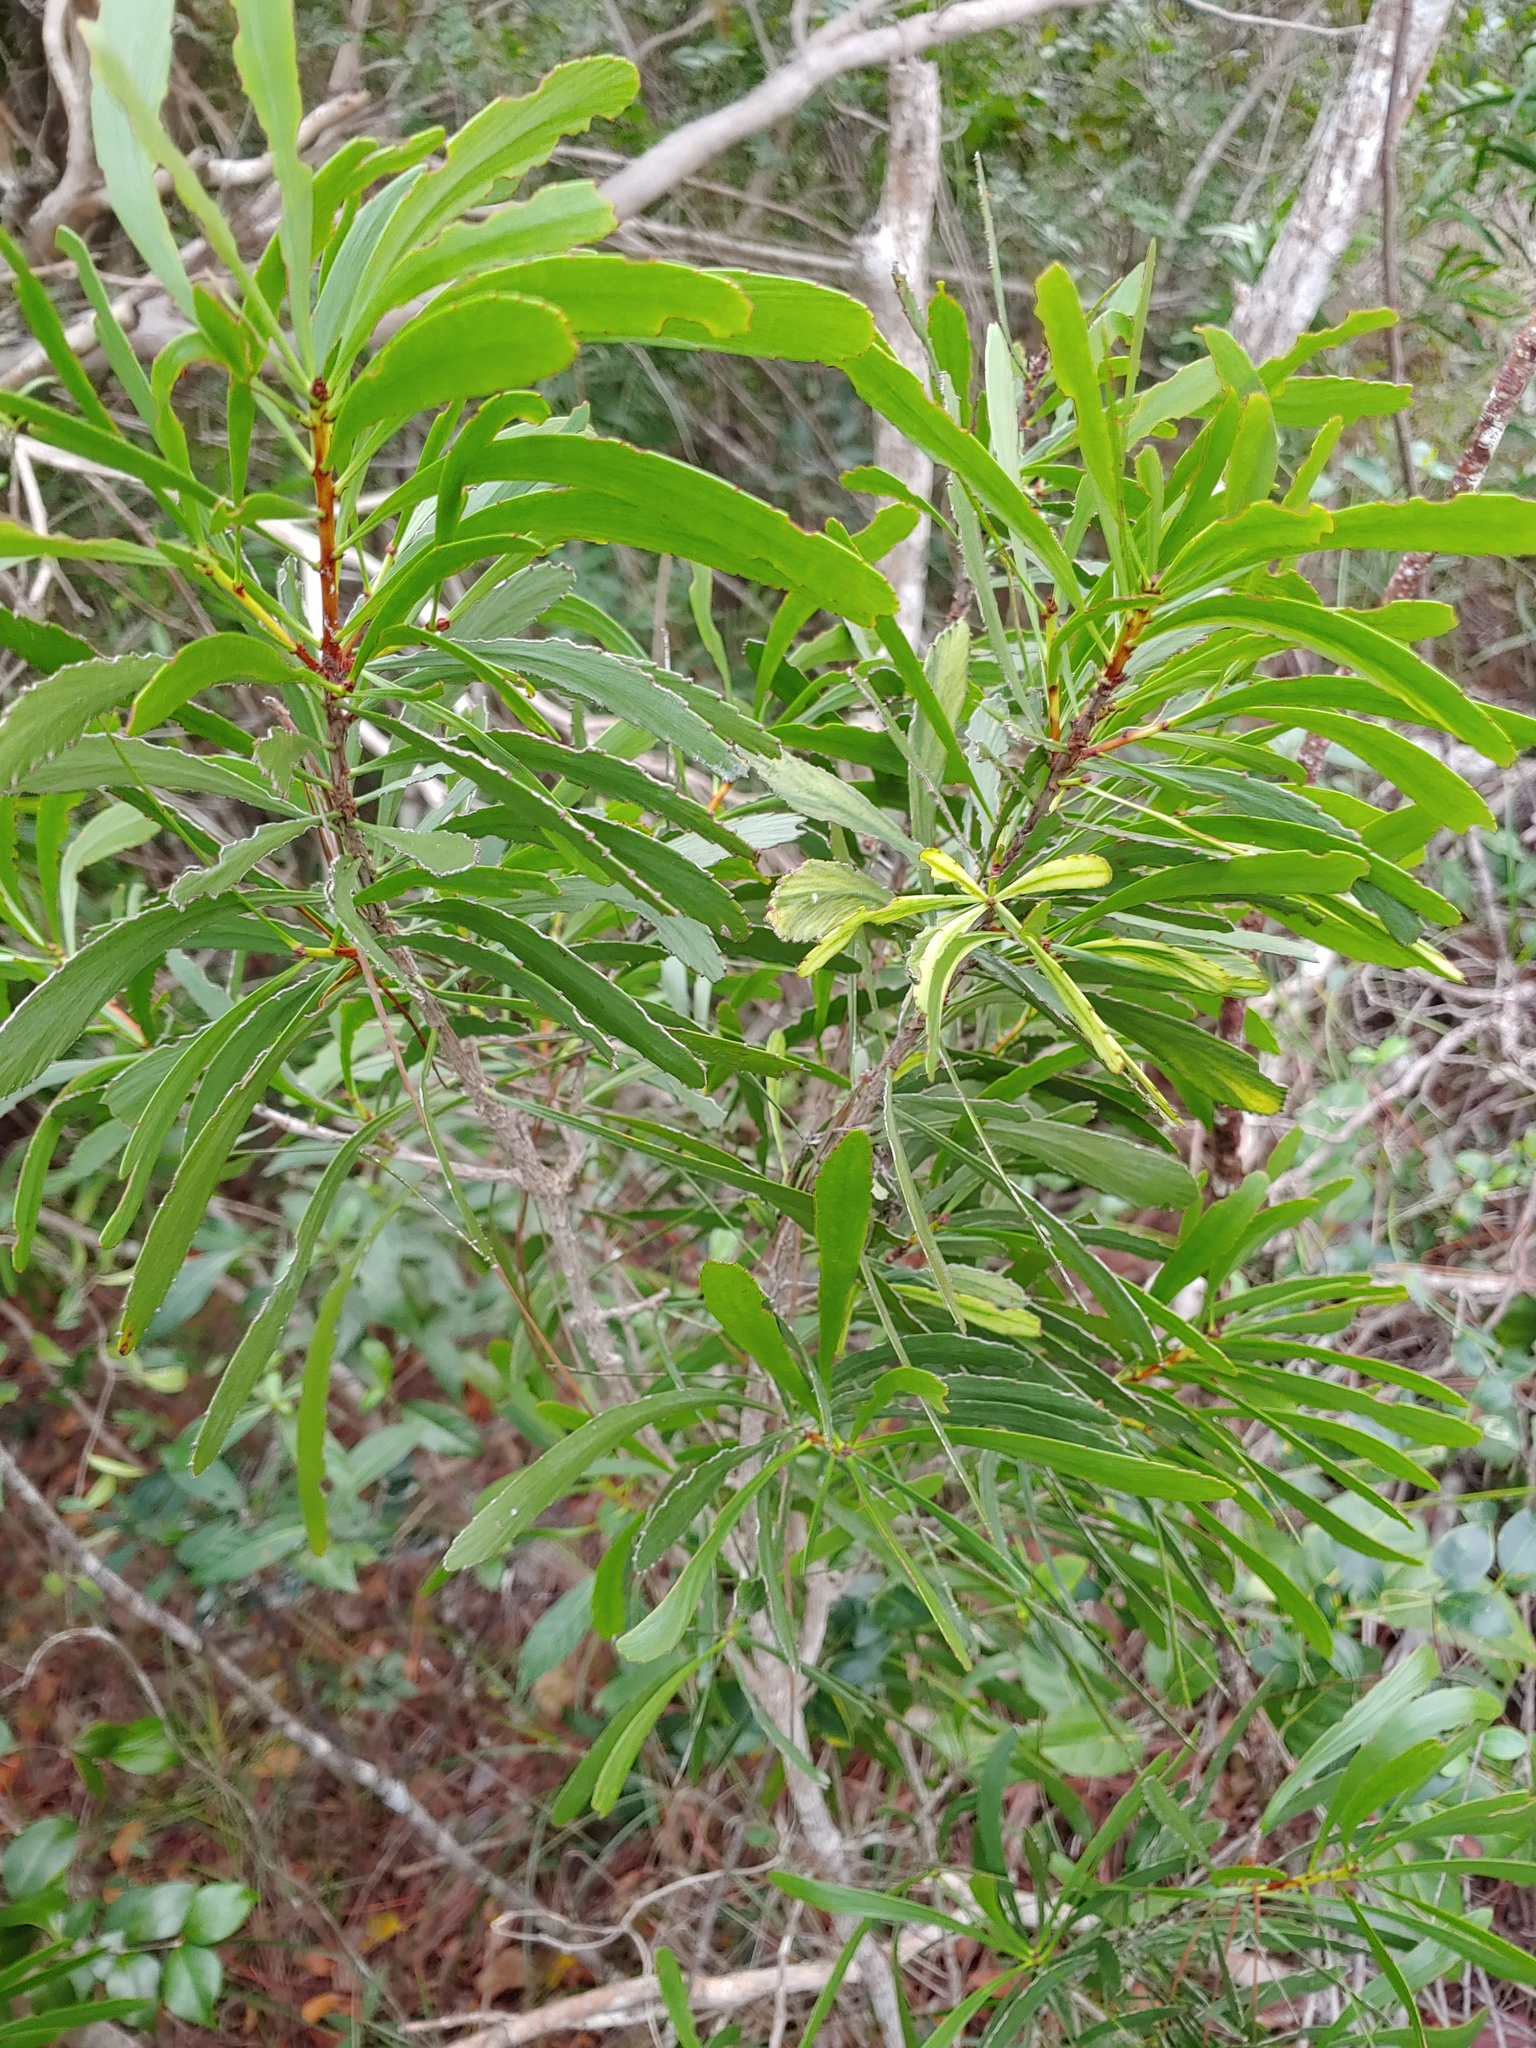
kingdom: Plantae
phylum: Tracheophyta
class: Magnoliopsida
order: Malpighiales
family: Phyllanthaceae
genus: Phyllanthus
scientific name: Phyllanthus epiphyllanthus
